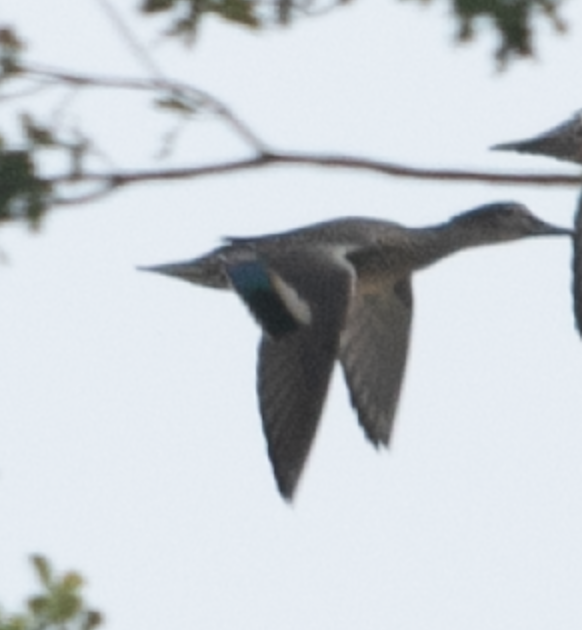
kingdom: Animalia
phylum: Chordata
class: Aves
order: Anseriformes
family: Anatidae
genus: Anas
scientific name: Anas crecca
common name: Eurasian teal
